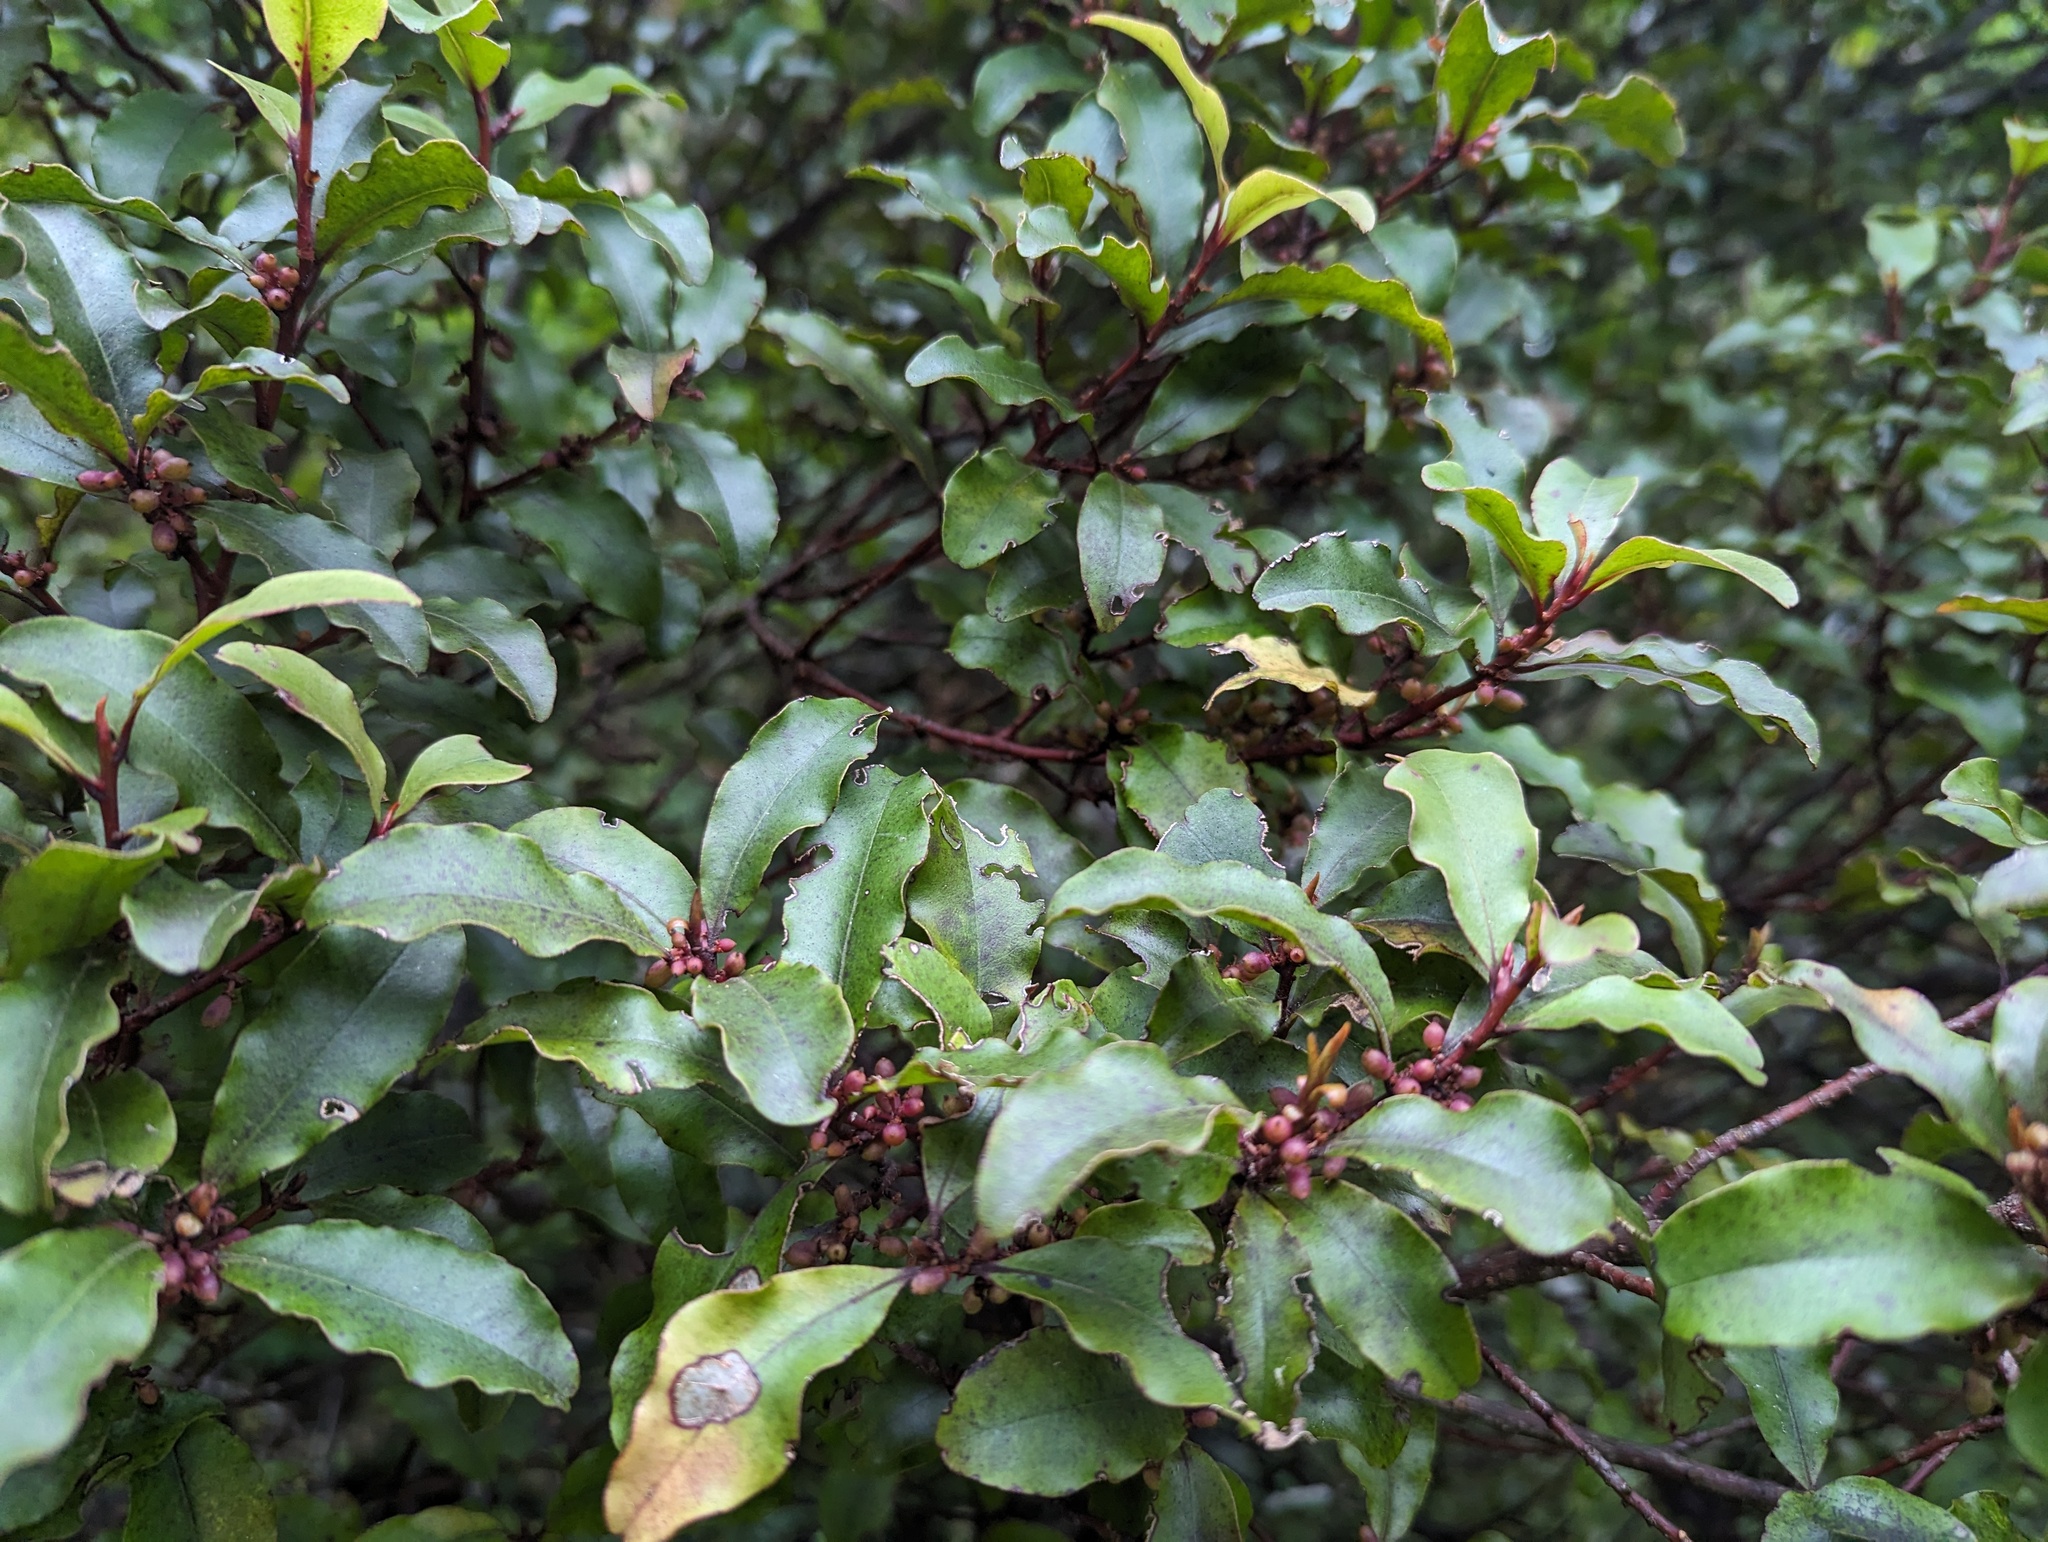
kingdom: Plantae
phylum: Tracheophyta
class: Magnoliopsida
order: Ericales
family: Primulaceae
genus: Myrsine
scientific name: Myrsine australis
